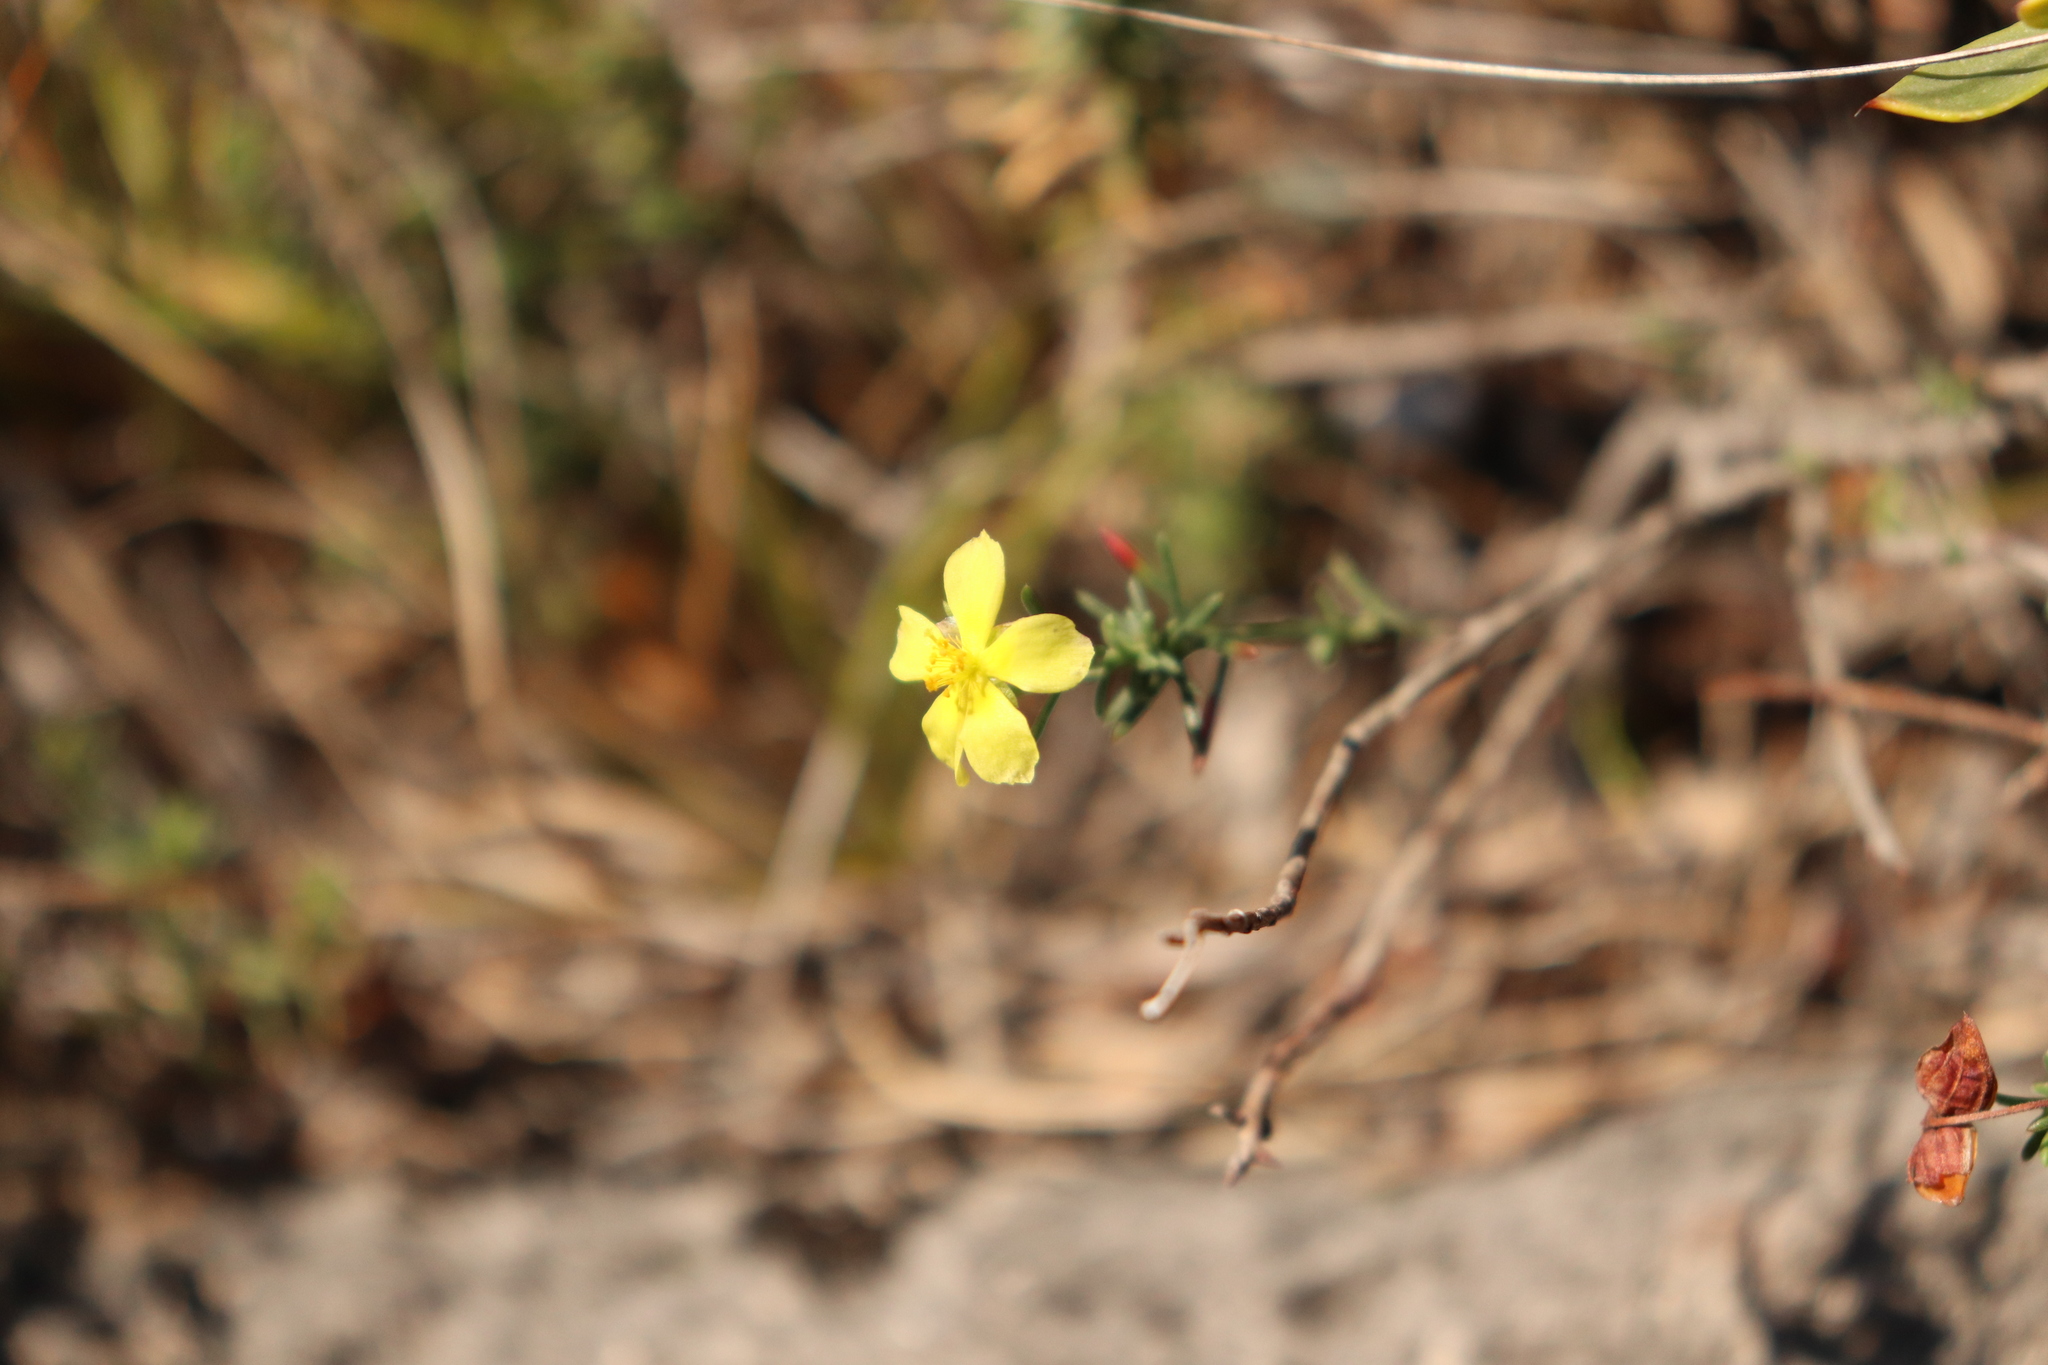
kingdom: Plantae
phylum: Tracheophyta
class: Magnoliopsida
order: Malvales
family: Cistaceae
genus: Fumana
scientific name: Fumana ericifolia
